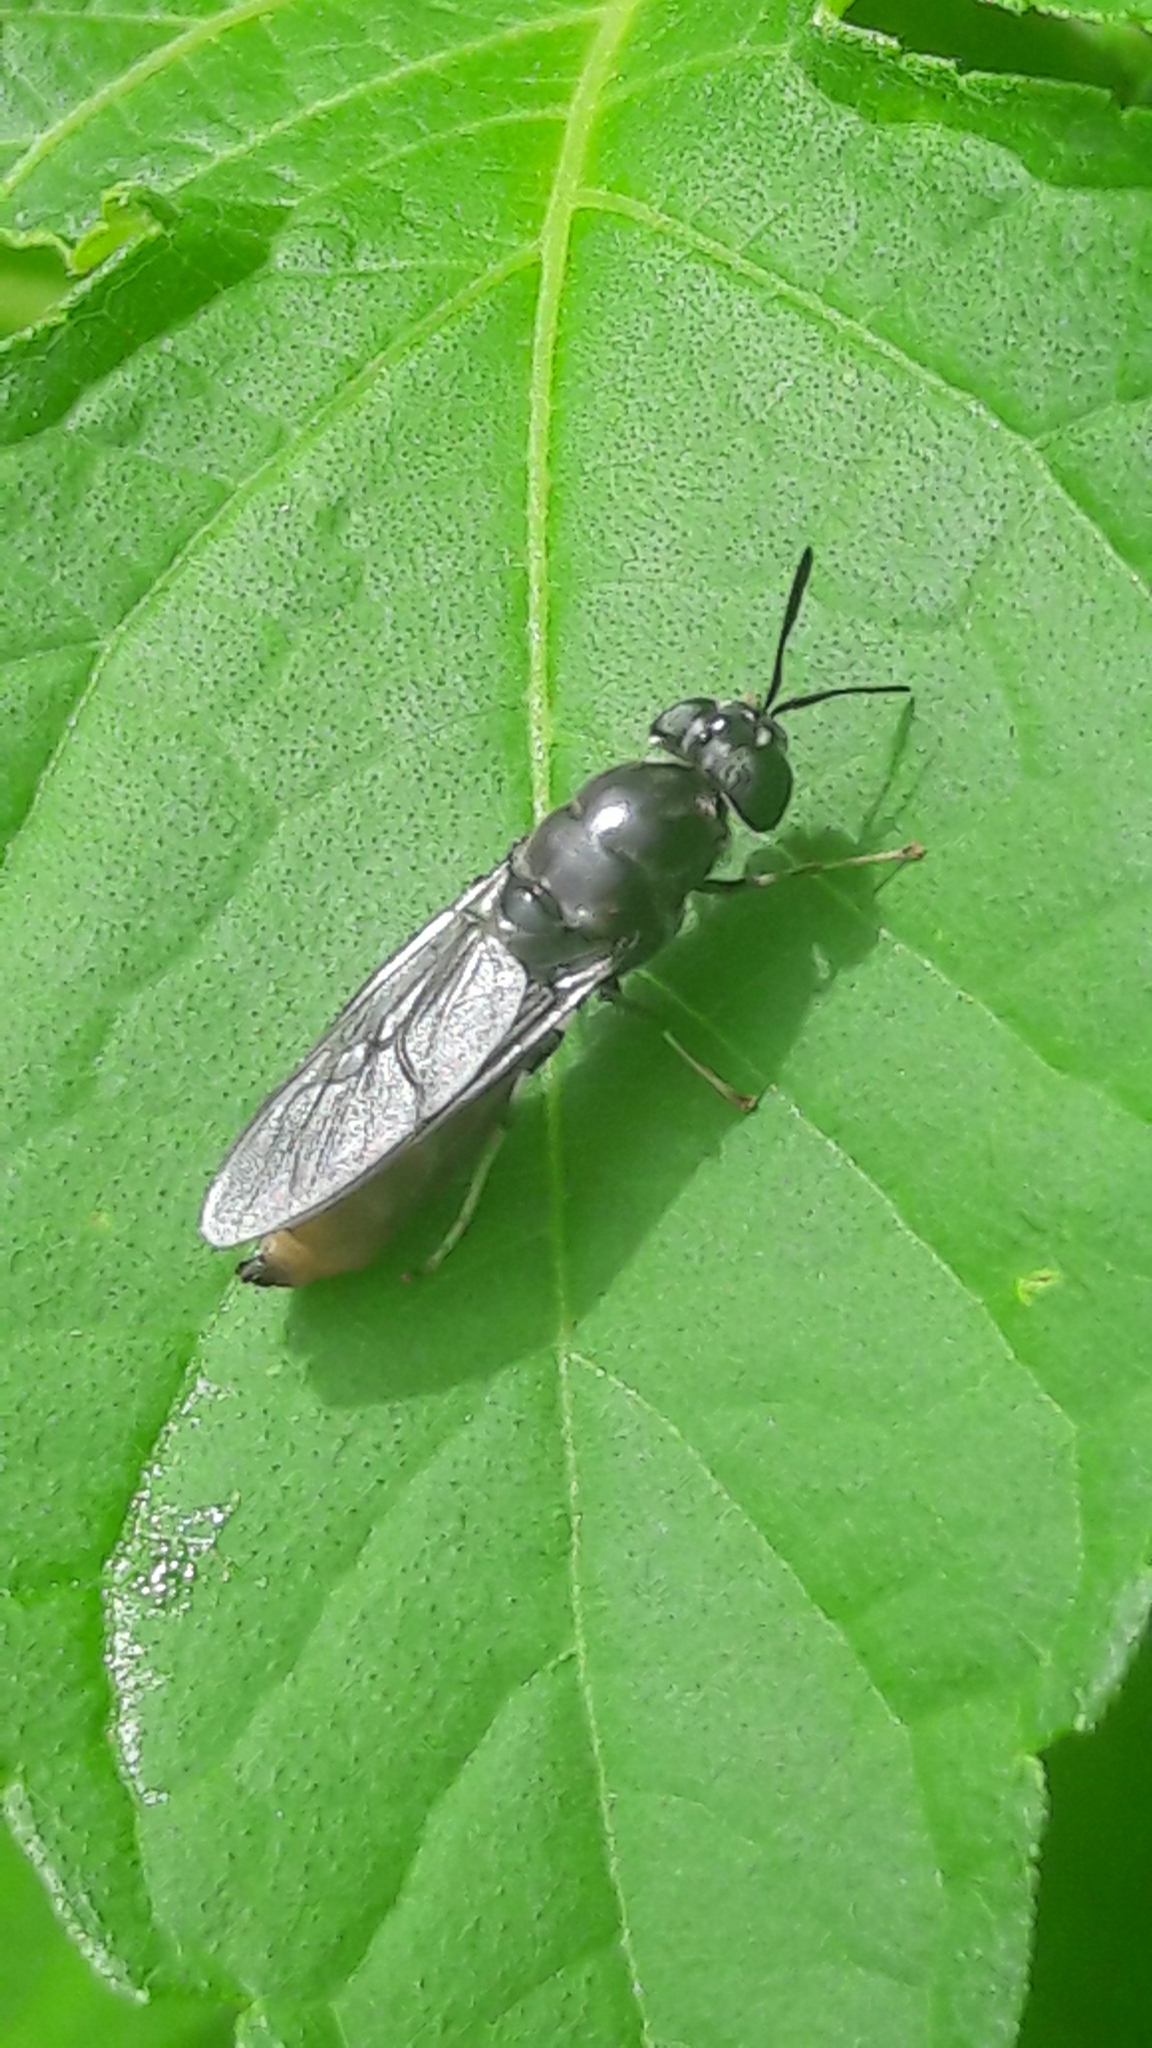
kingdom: Animalia
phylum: Arthropoda
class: Insecta
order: Diptera
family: Stratiomyidae
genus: Hermetia
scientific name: Hermetia illucens
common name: Black soldier fly
